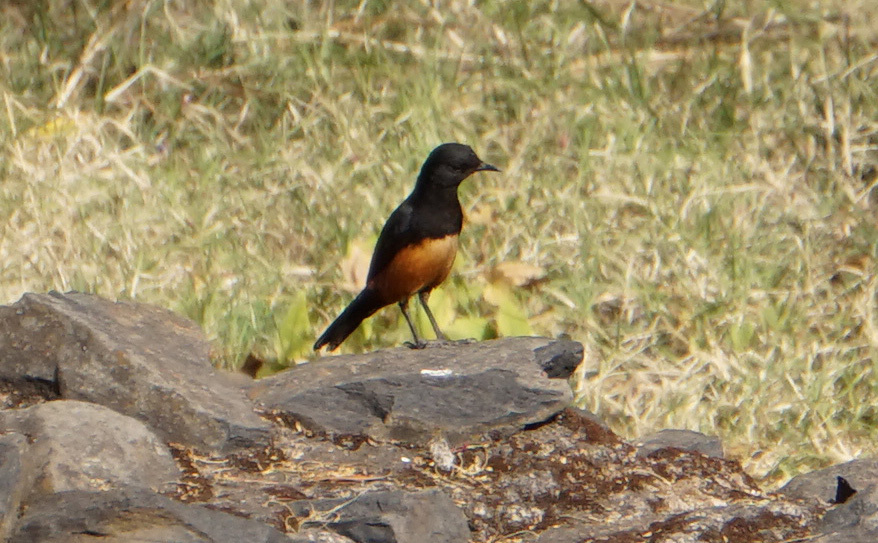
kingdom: Animalia
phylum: Chordata
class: Aves
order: Passeriformes
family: Muscicapidae
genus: Thamnolaea
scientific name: Thamnolaea cinnamomeiventris
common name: Mocking cliff chat
